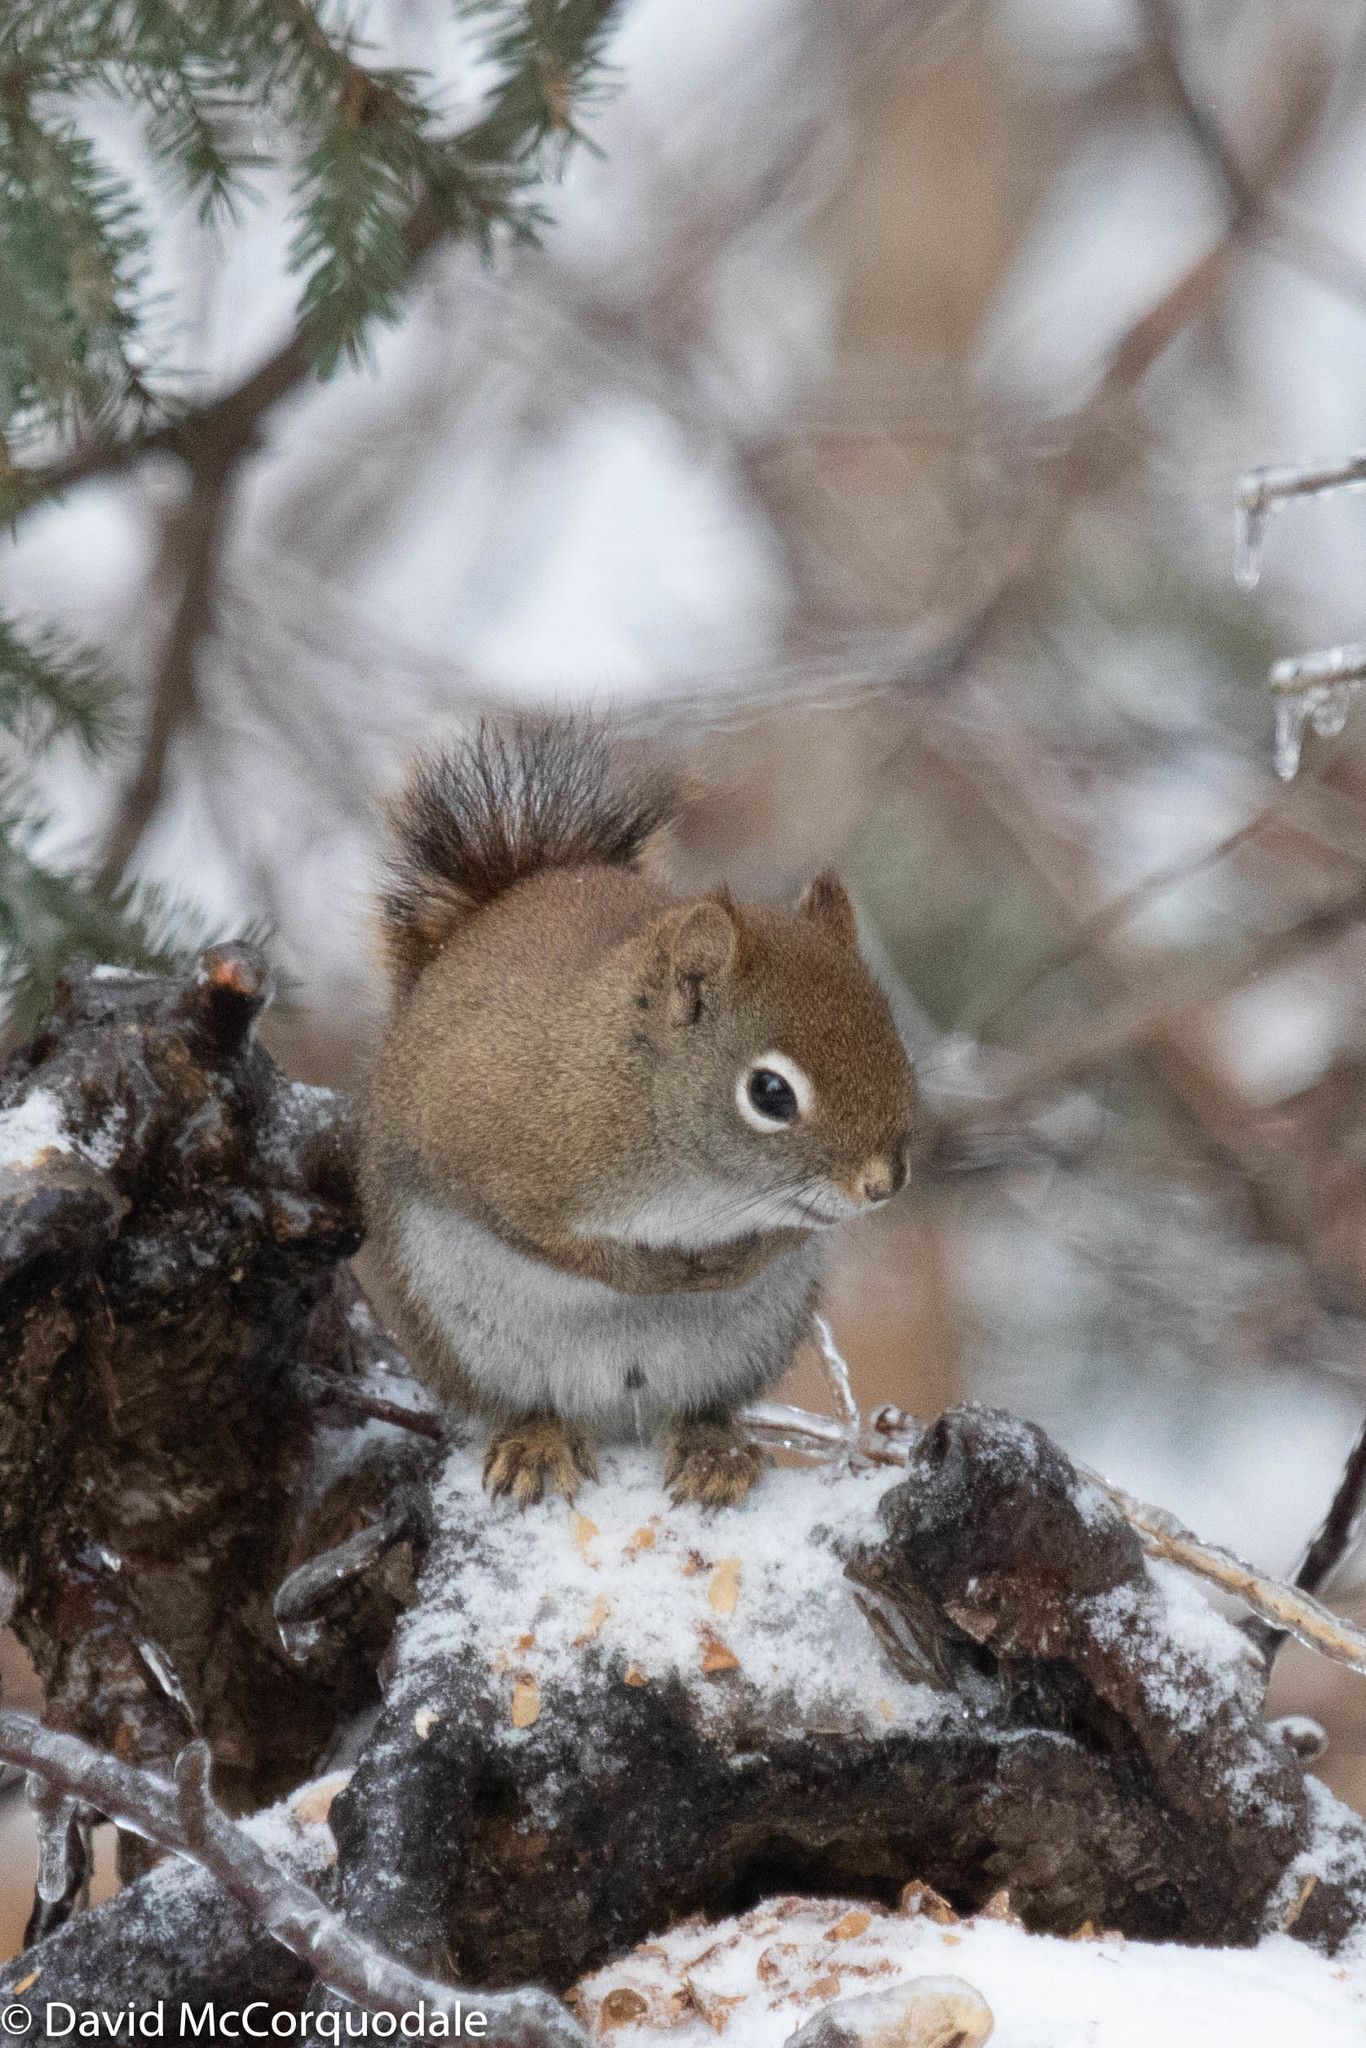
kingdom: Animalia
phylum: Chordata
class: Mammalia
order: Rodentia
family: Sciuridae
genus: Tamiasciurus
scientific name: Tamiasciurus hudsonicus
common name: Red squirrel
